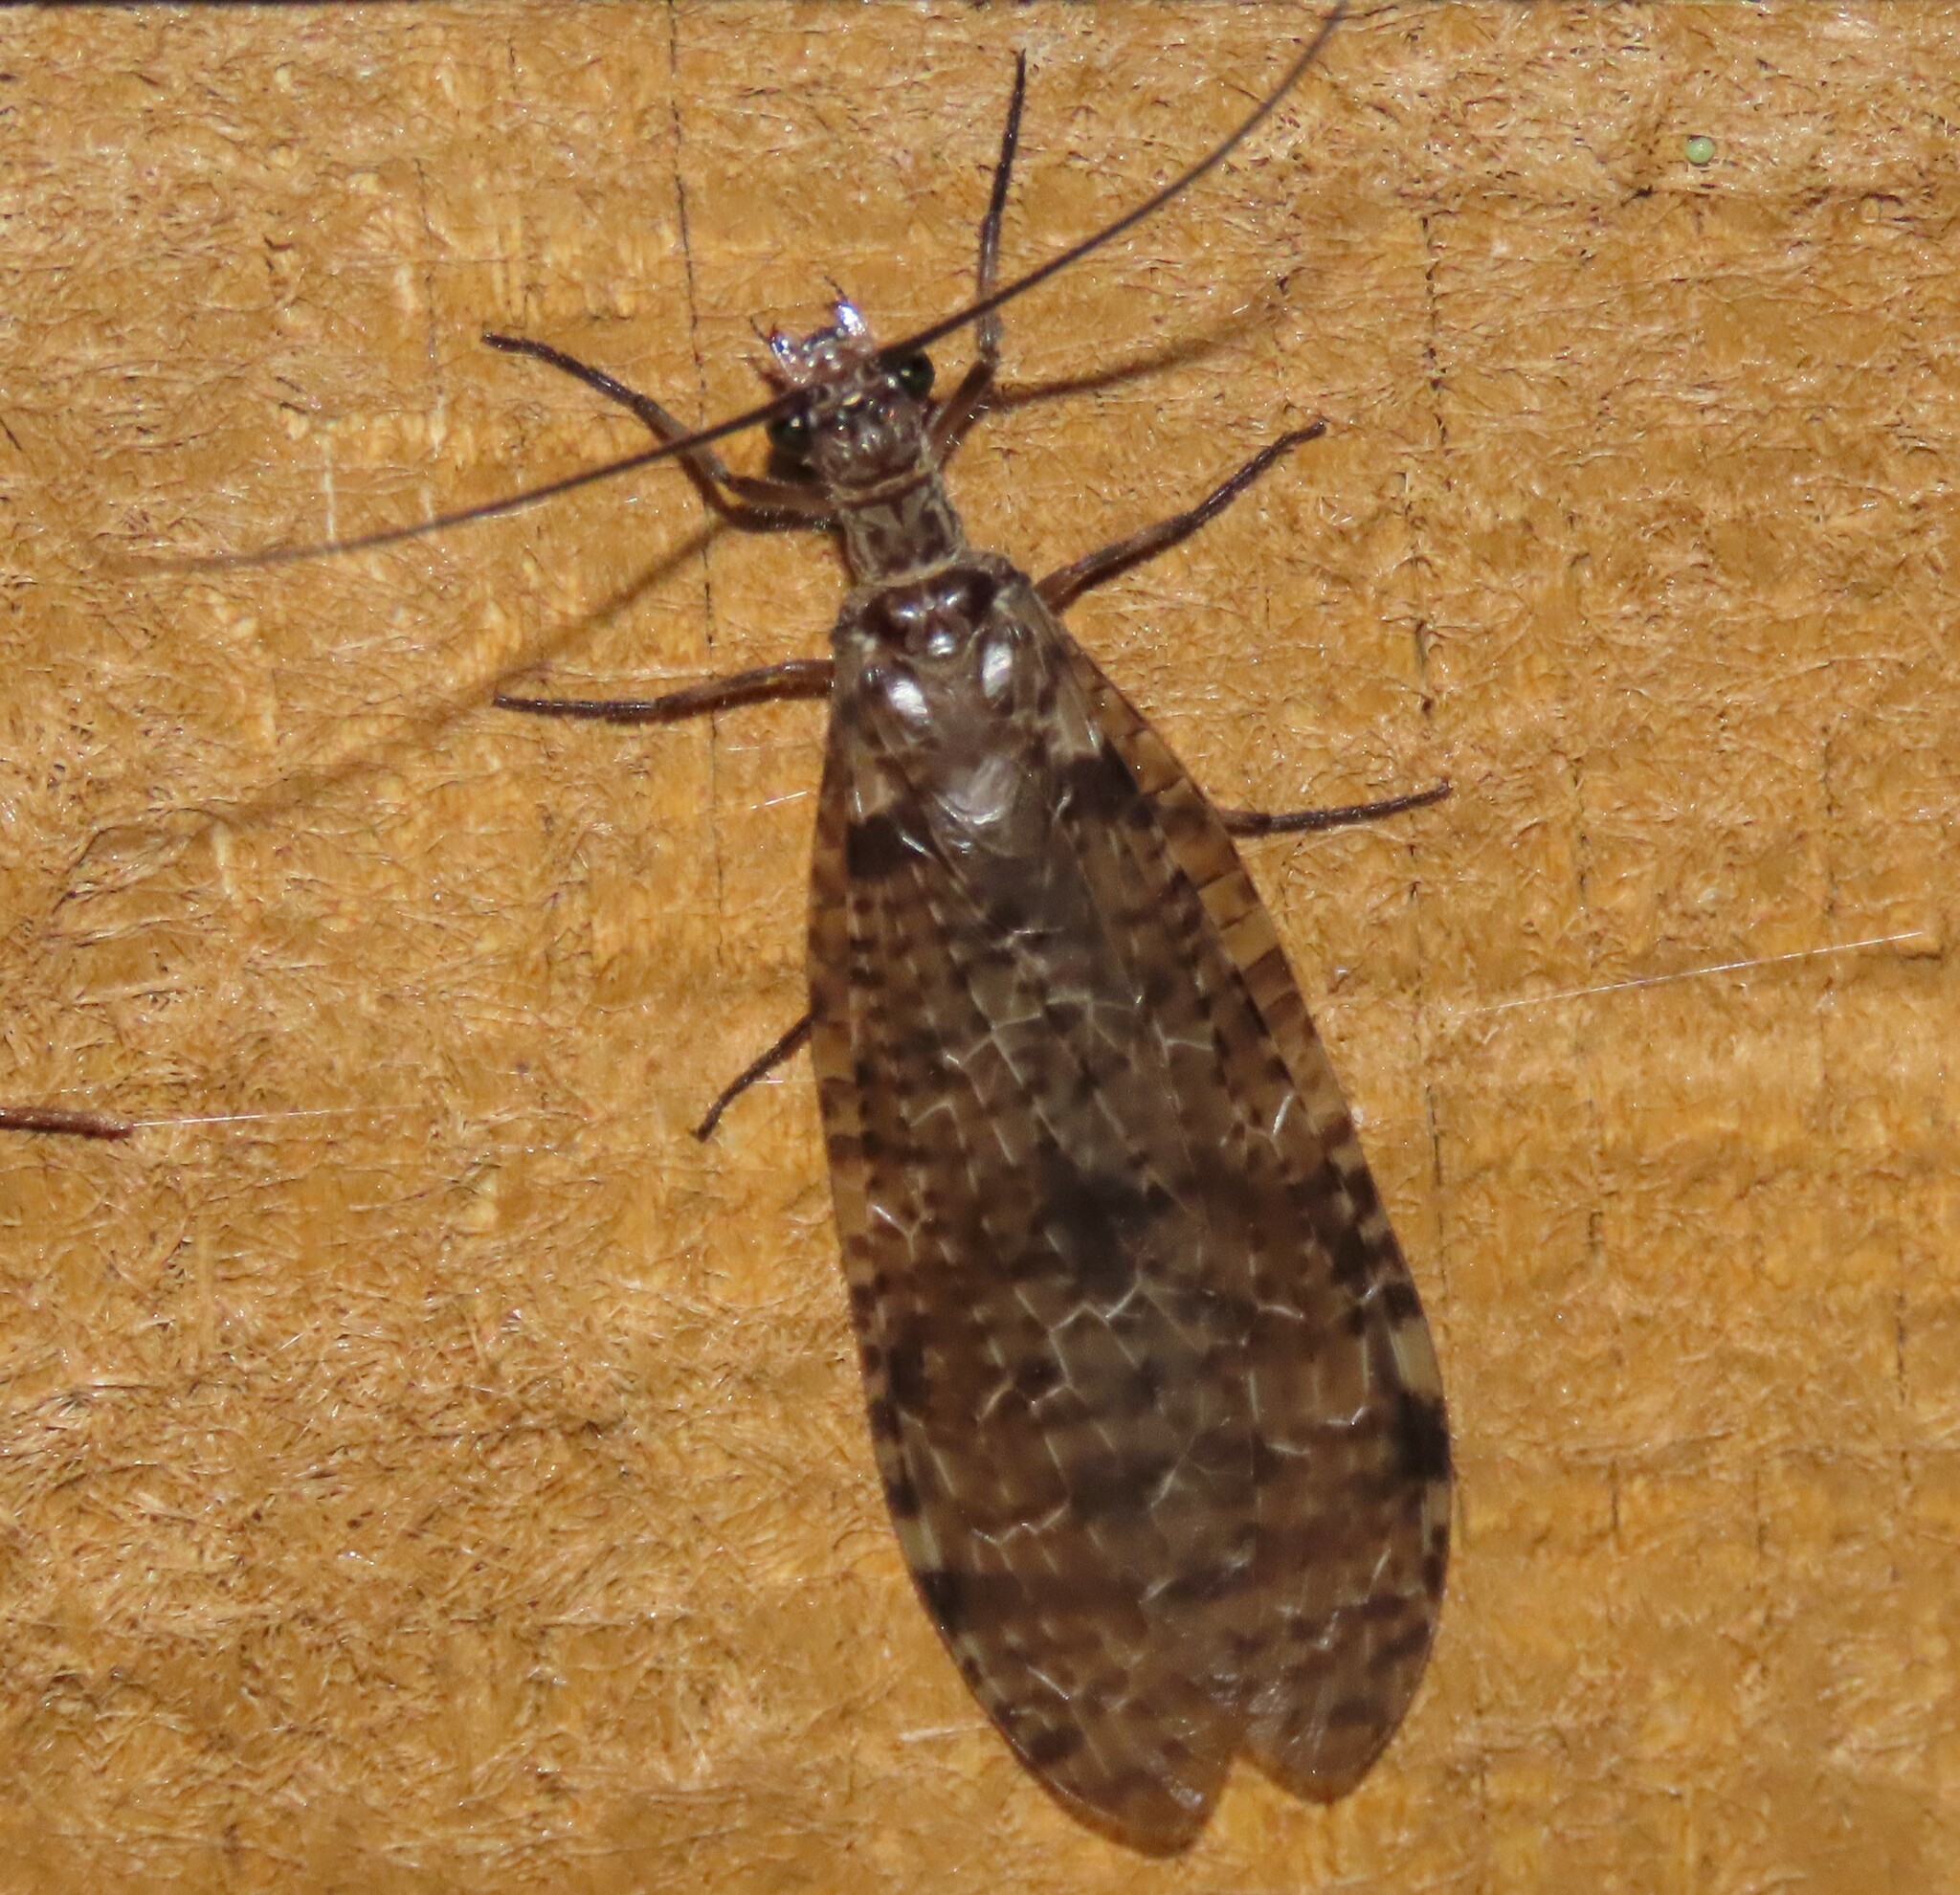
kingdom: Animalia
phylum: Arthropoda
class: Insecta
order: Megaloptera
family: Corydalidae
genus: Archichauliodes
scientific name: Archichauliodes diversus
